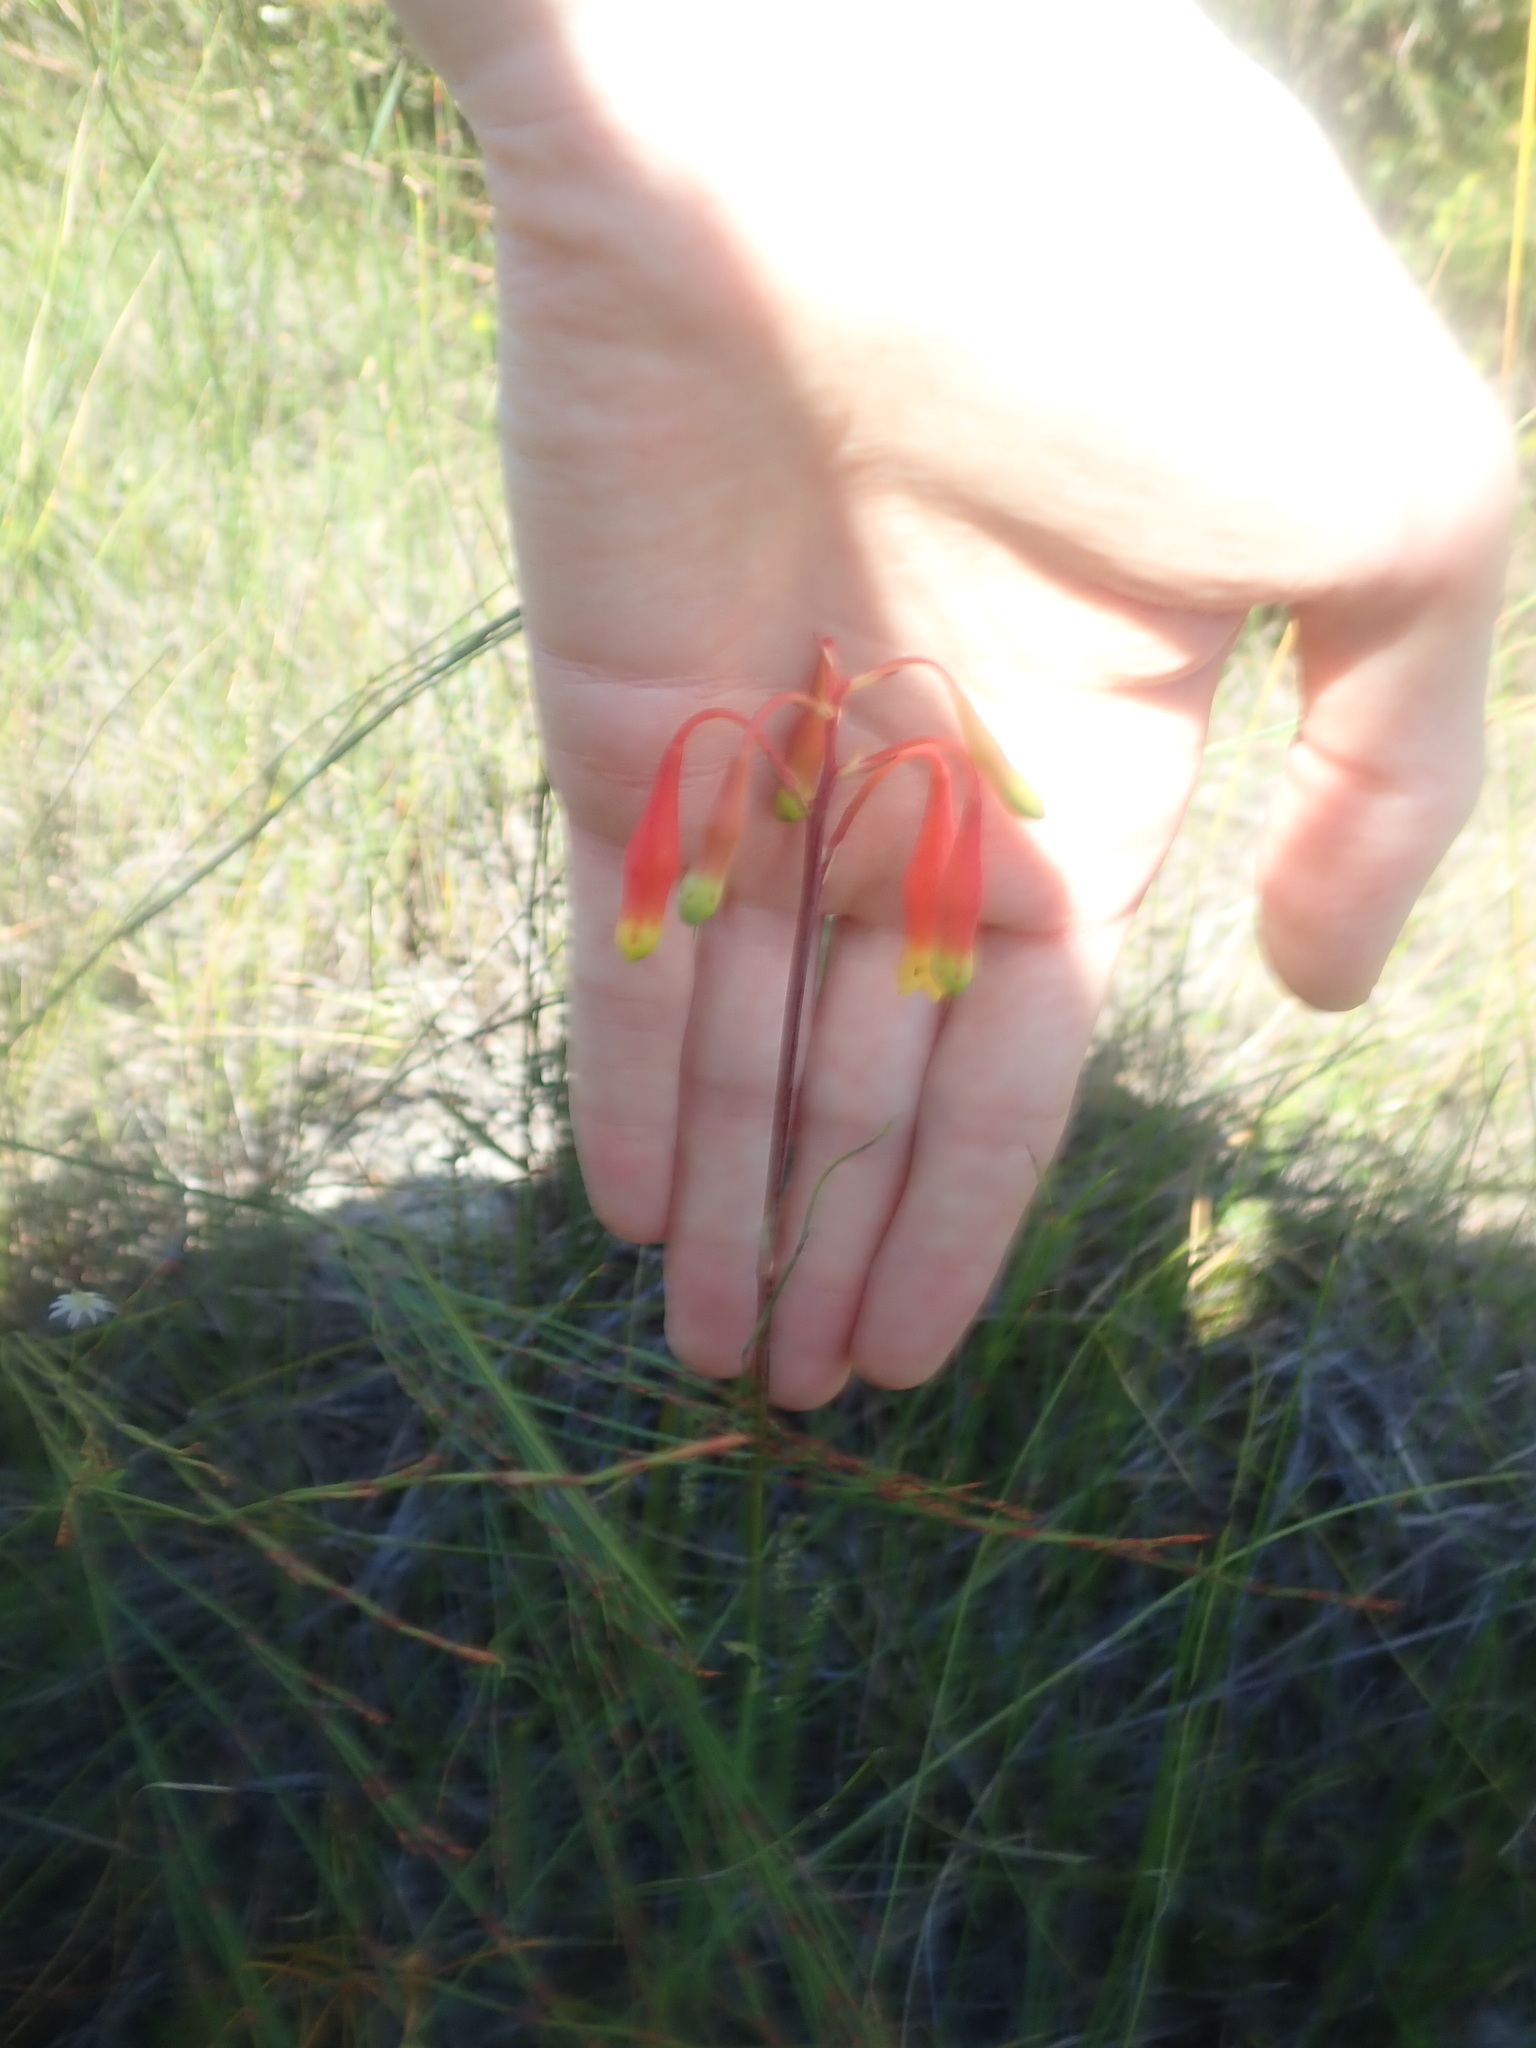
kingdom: Plantae
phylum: Tracheophyta
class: Liliopsida
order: Asparagales
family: Blandfordiaceae
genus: Blandfordia
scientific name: Blandfordia nobilis
